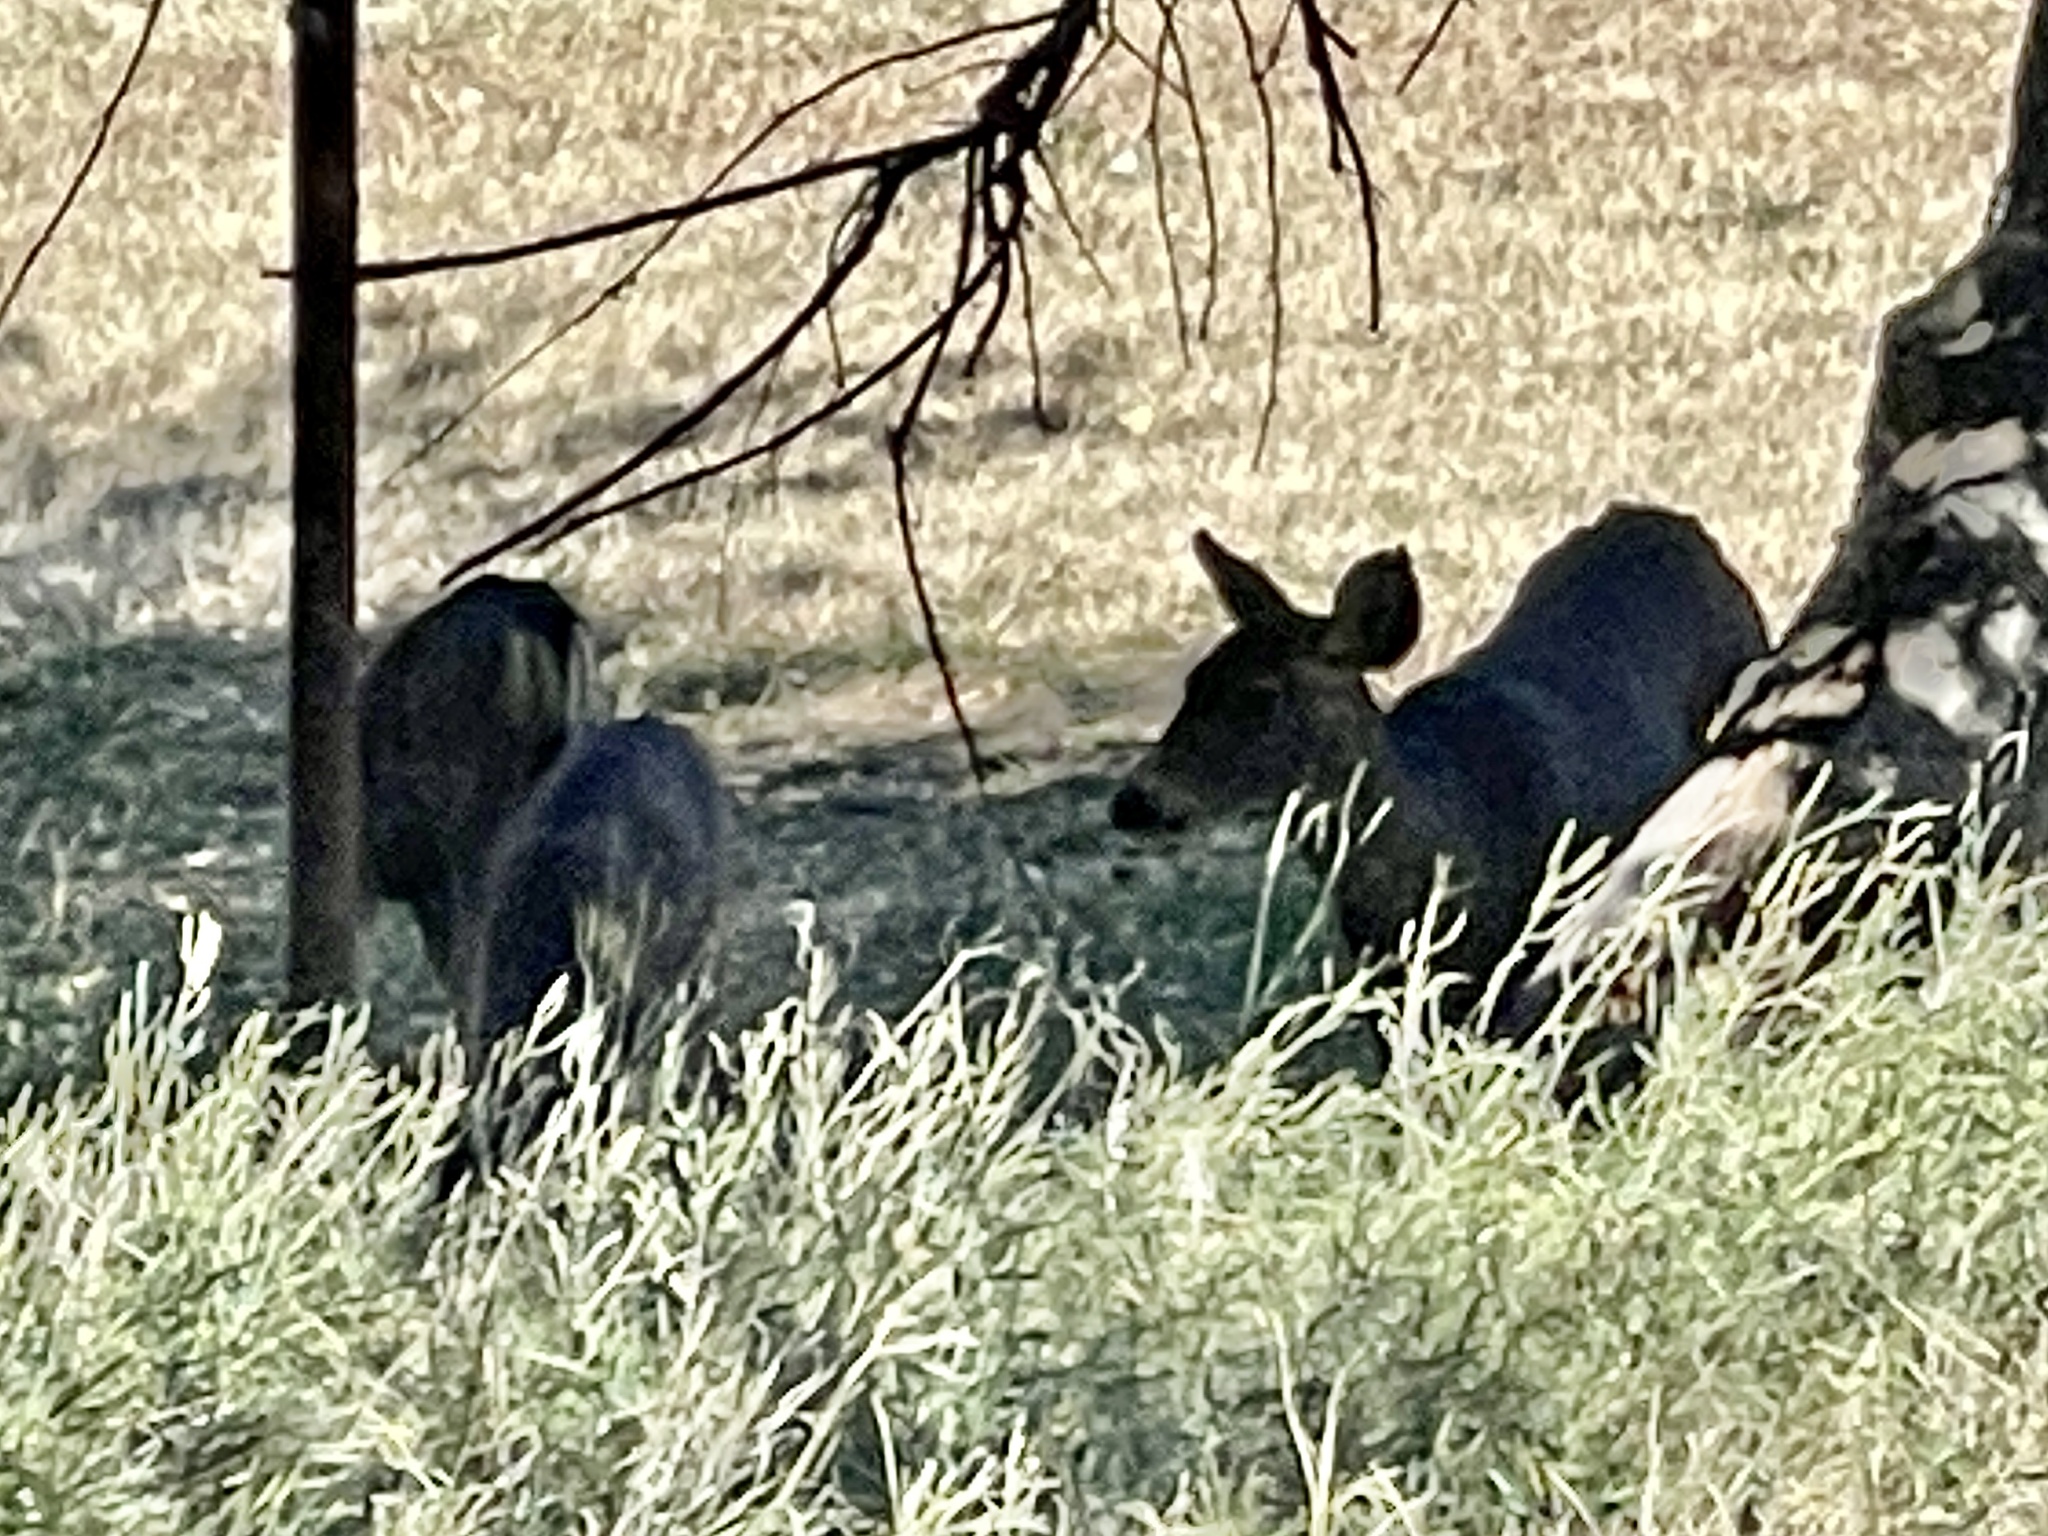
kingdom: Animalia
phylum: Chordata
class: Mammalia
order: Artiodactyla
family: Cervidae
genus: Odocoileus
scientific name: Odocoileus hemionus
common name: Mule deer
